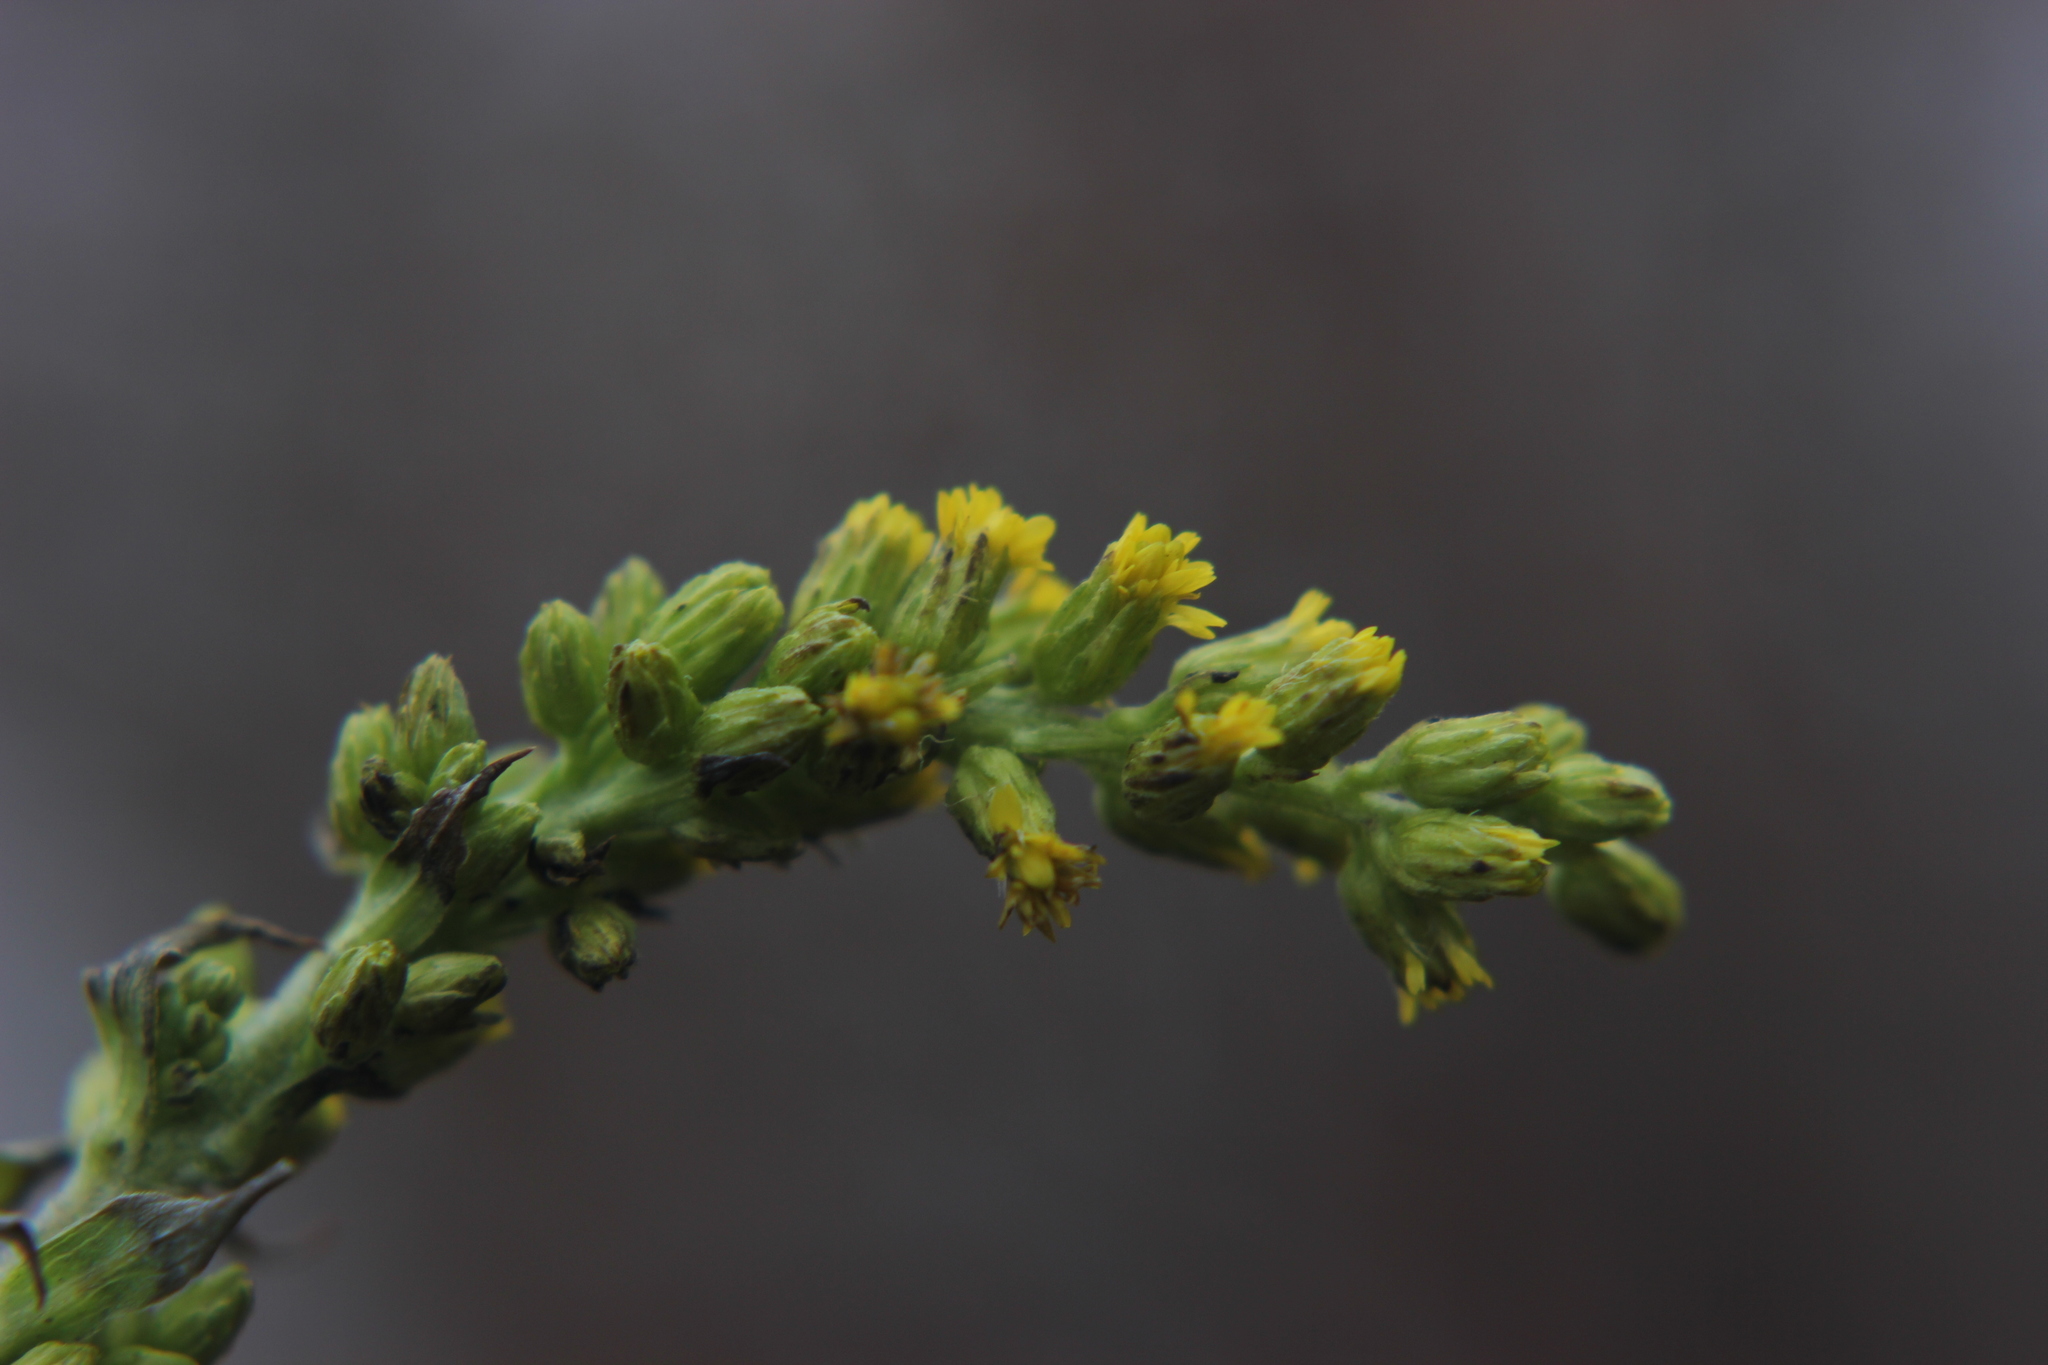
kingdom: Plantae
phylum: Tracheophyta
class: Magnoliopsida
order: Asterales
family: Asteraceae
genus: Solidago
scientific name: Solidago canadensis
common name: Canada goldenrod
